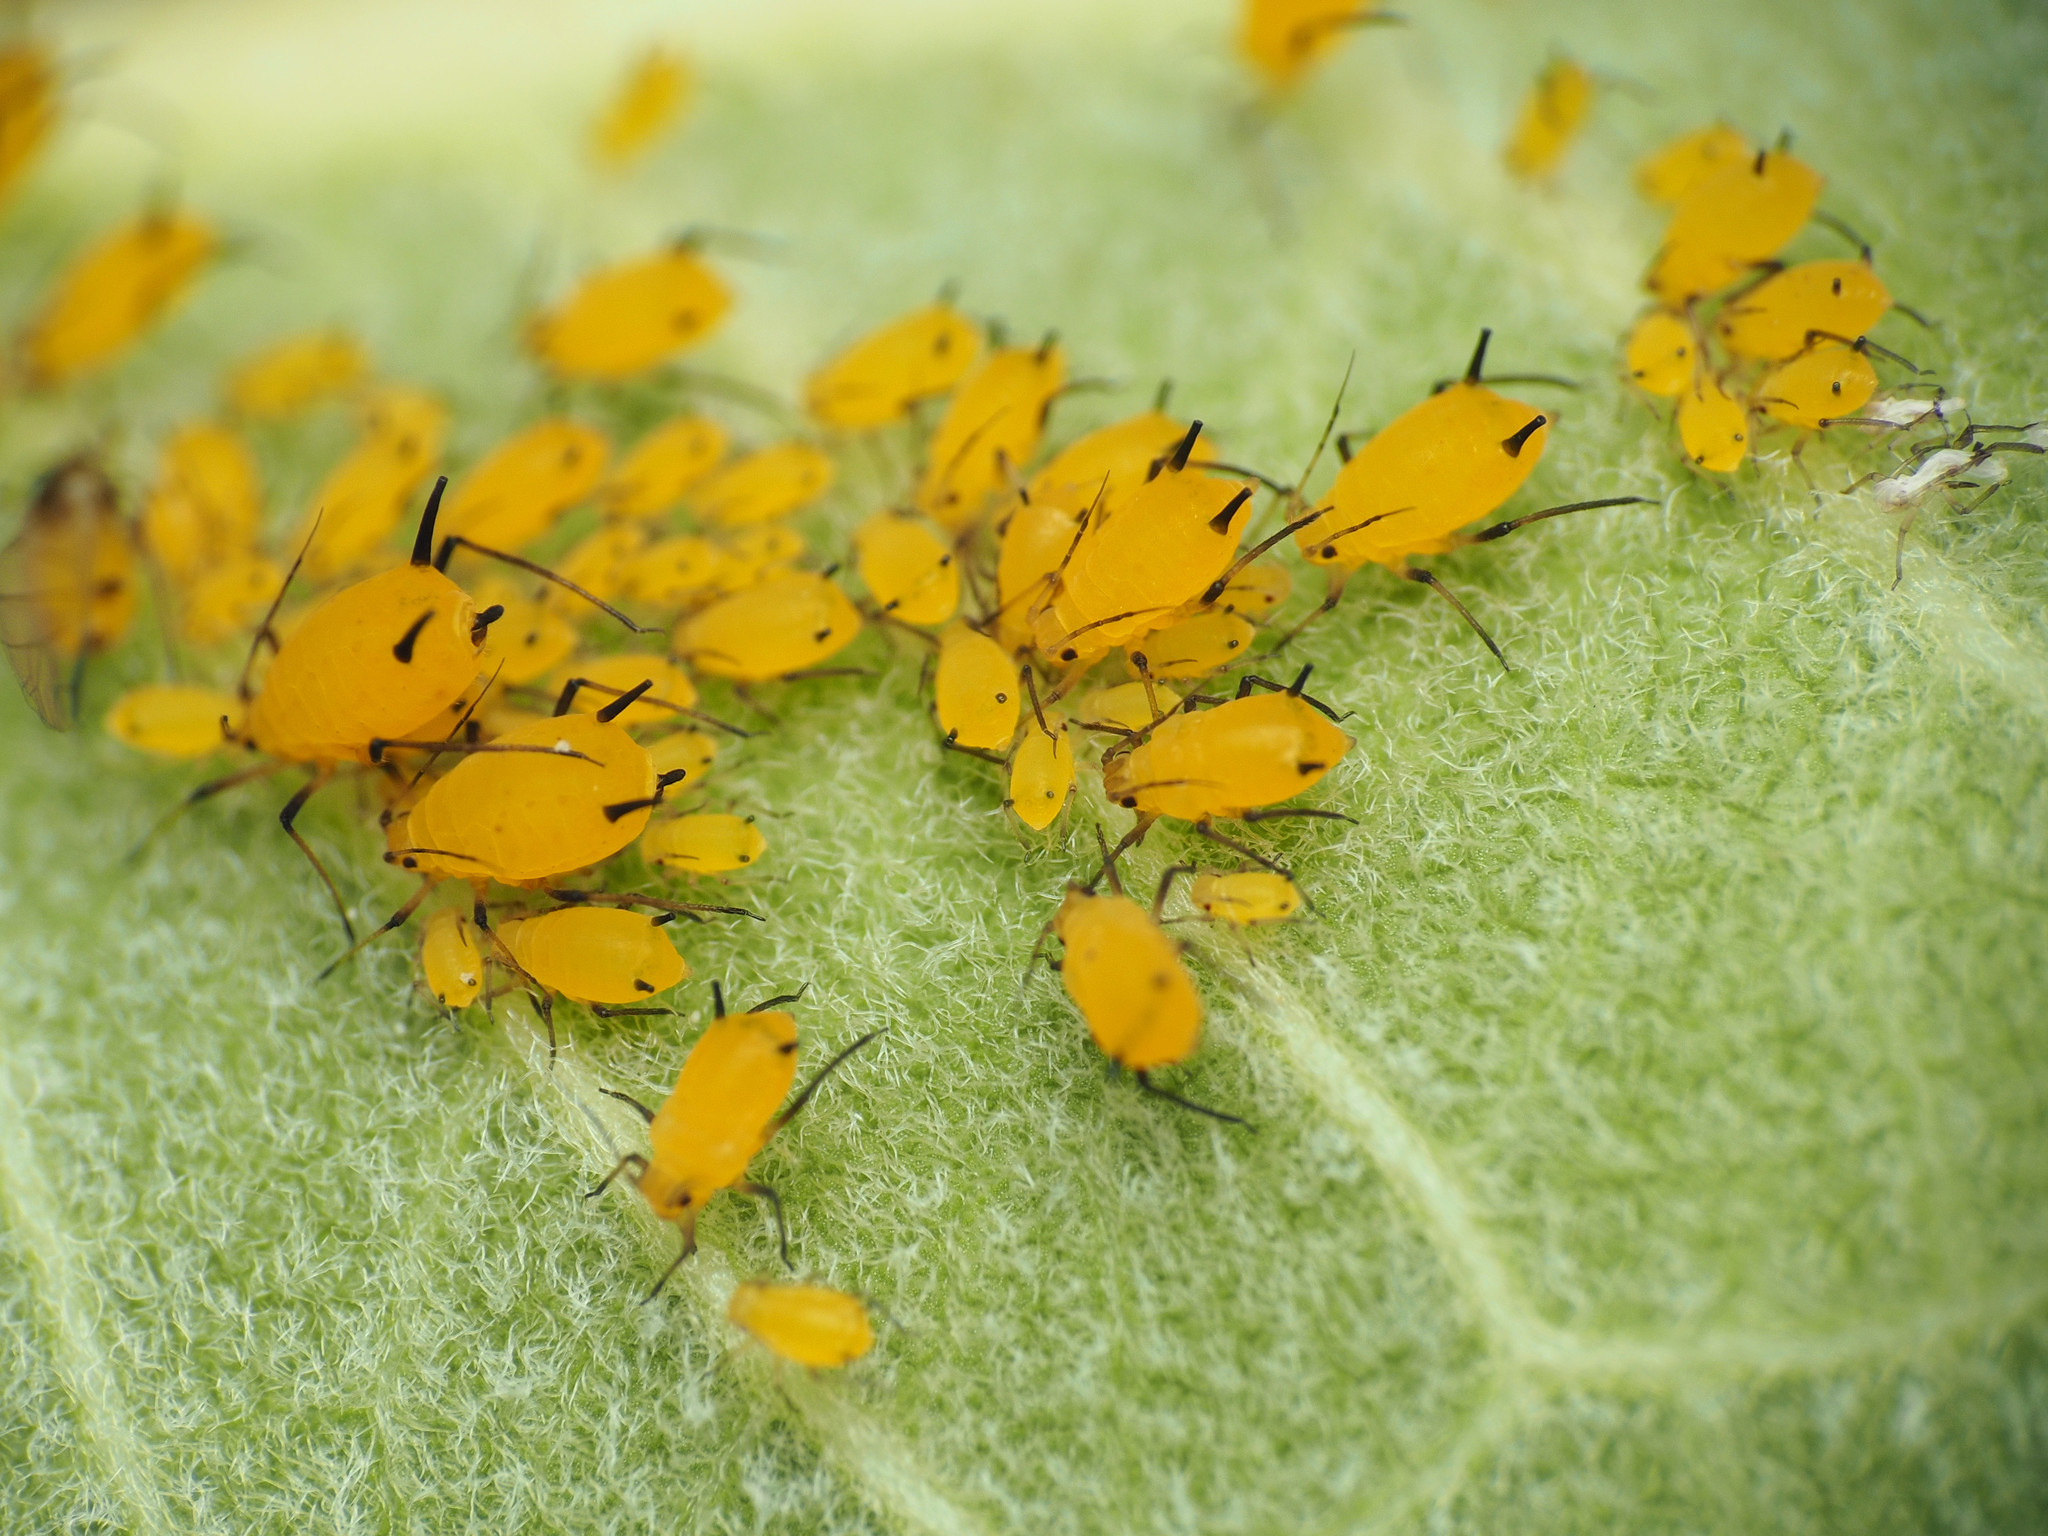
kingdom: Animalia
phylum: Arthropoda
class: Insecta
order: Hemiptera
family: Aphididae
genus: Aphis
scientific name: Aphis nerii
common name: Oleander aphid
